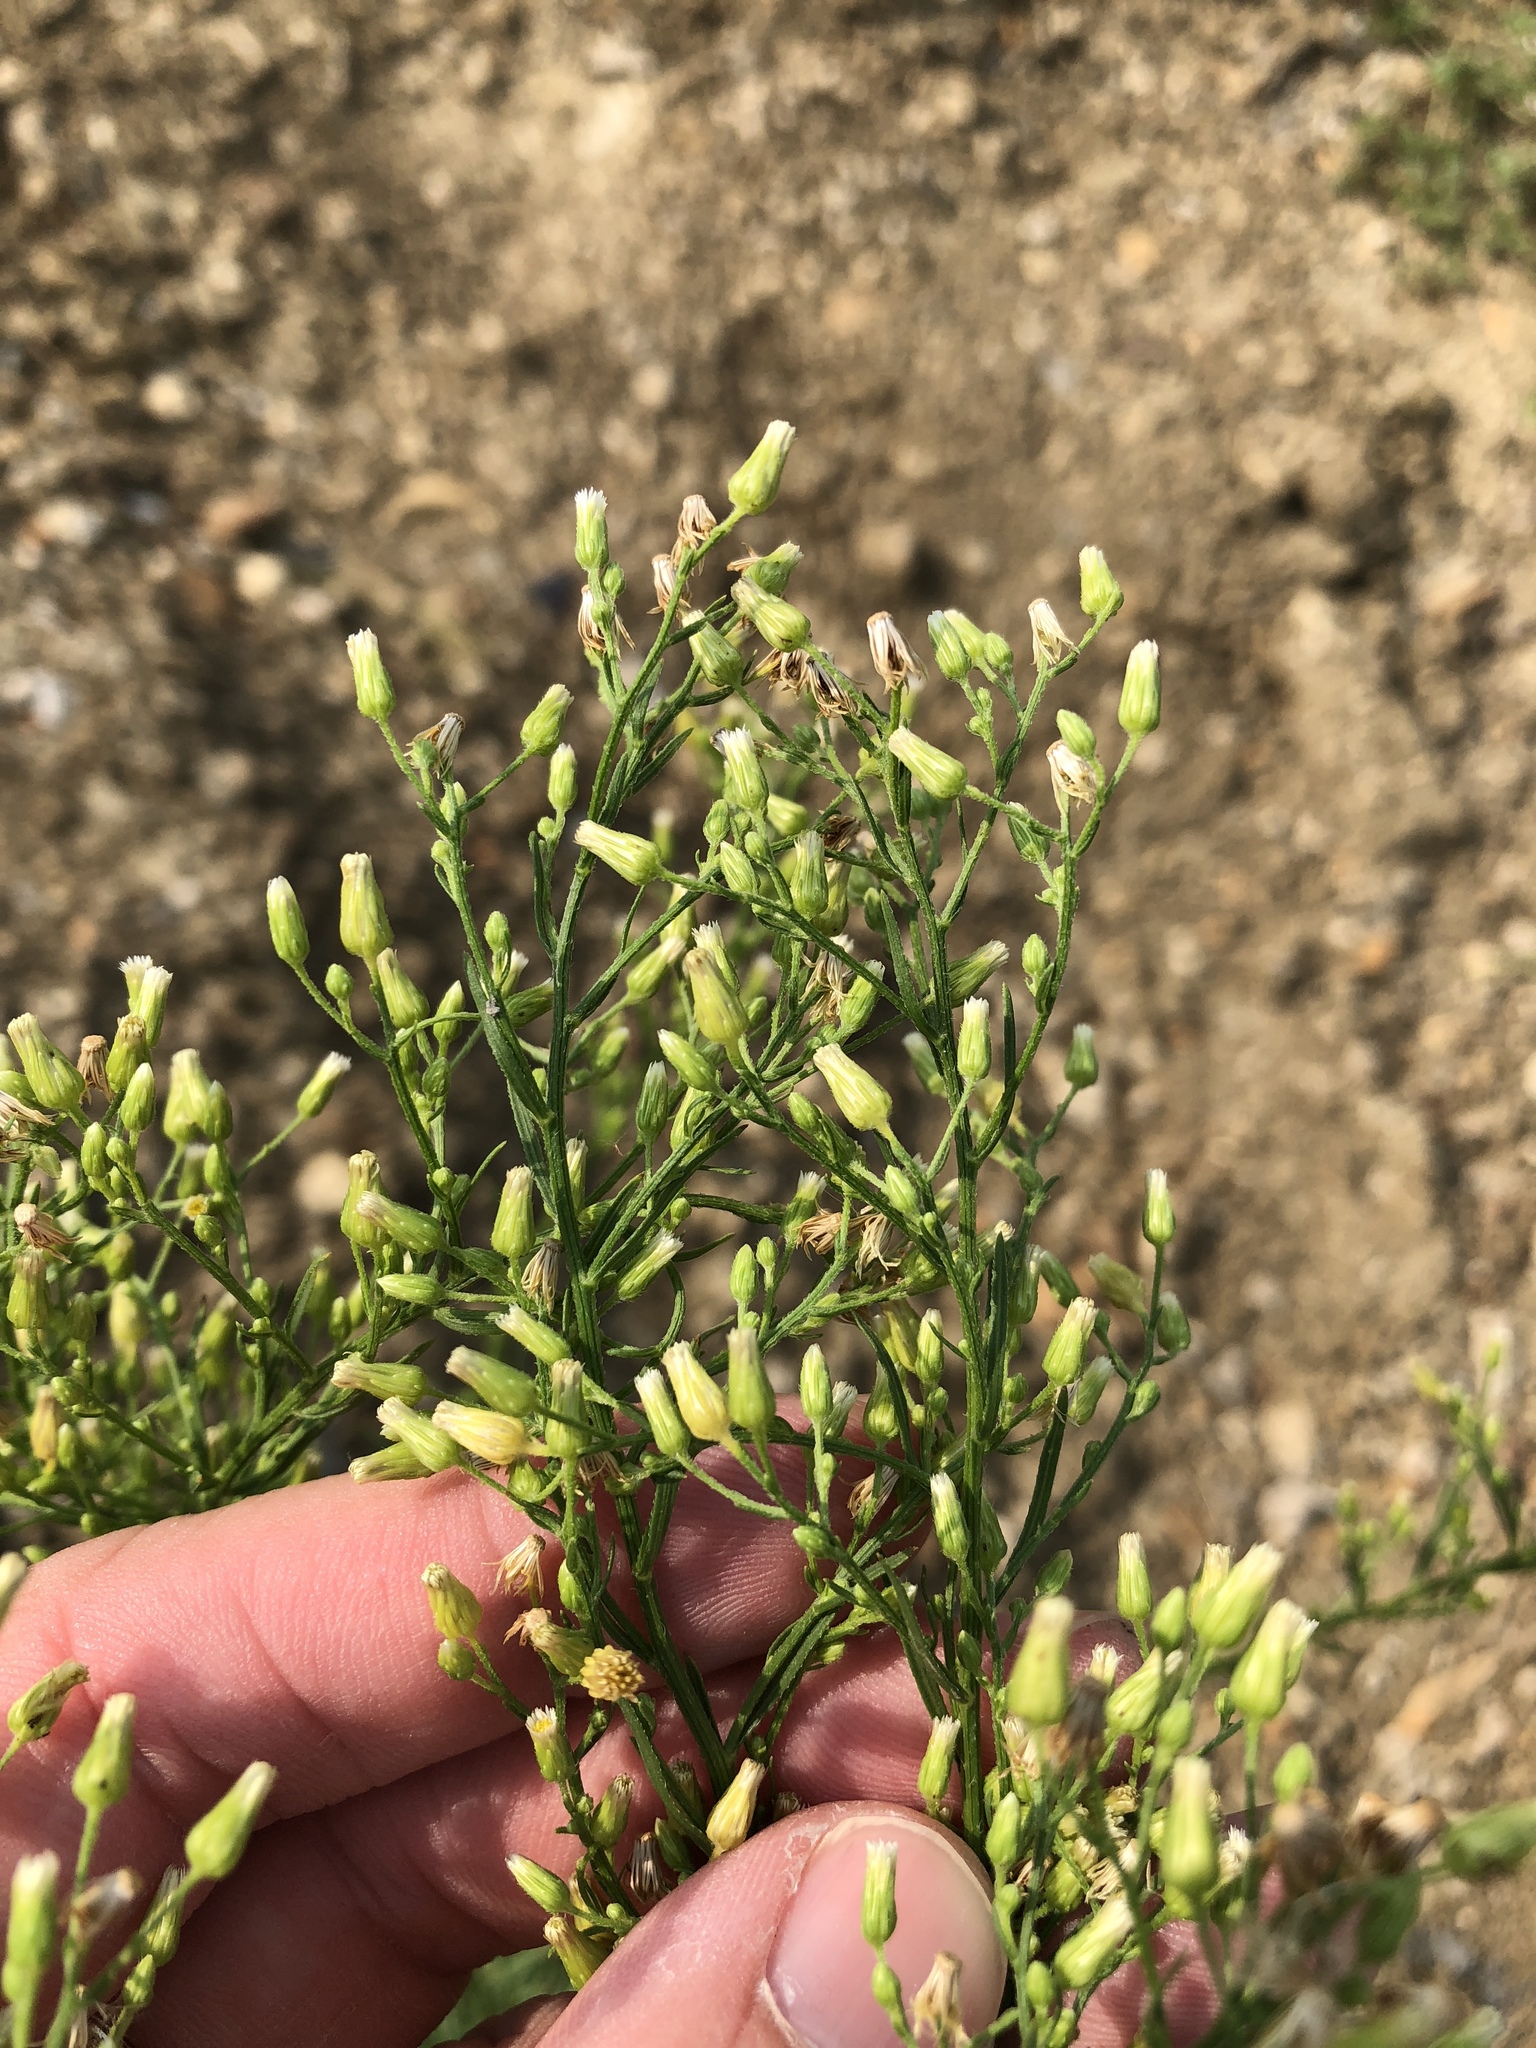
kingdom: Plantae
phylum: Tracheophyta
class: Magnoliopsida
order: Asterales
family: Asteraceae
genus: Erigeron
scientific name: Erigeron canadensis
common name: Canadian fleabane
